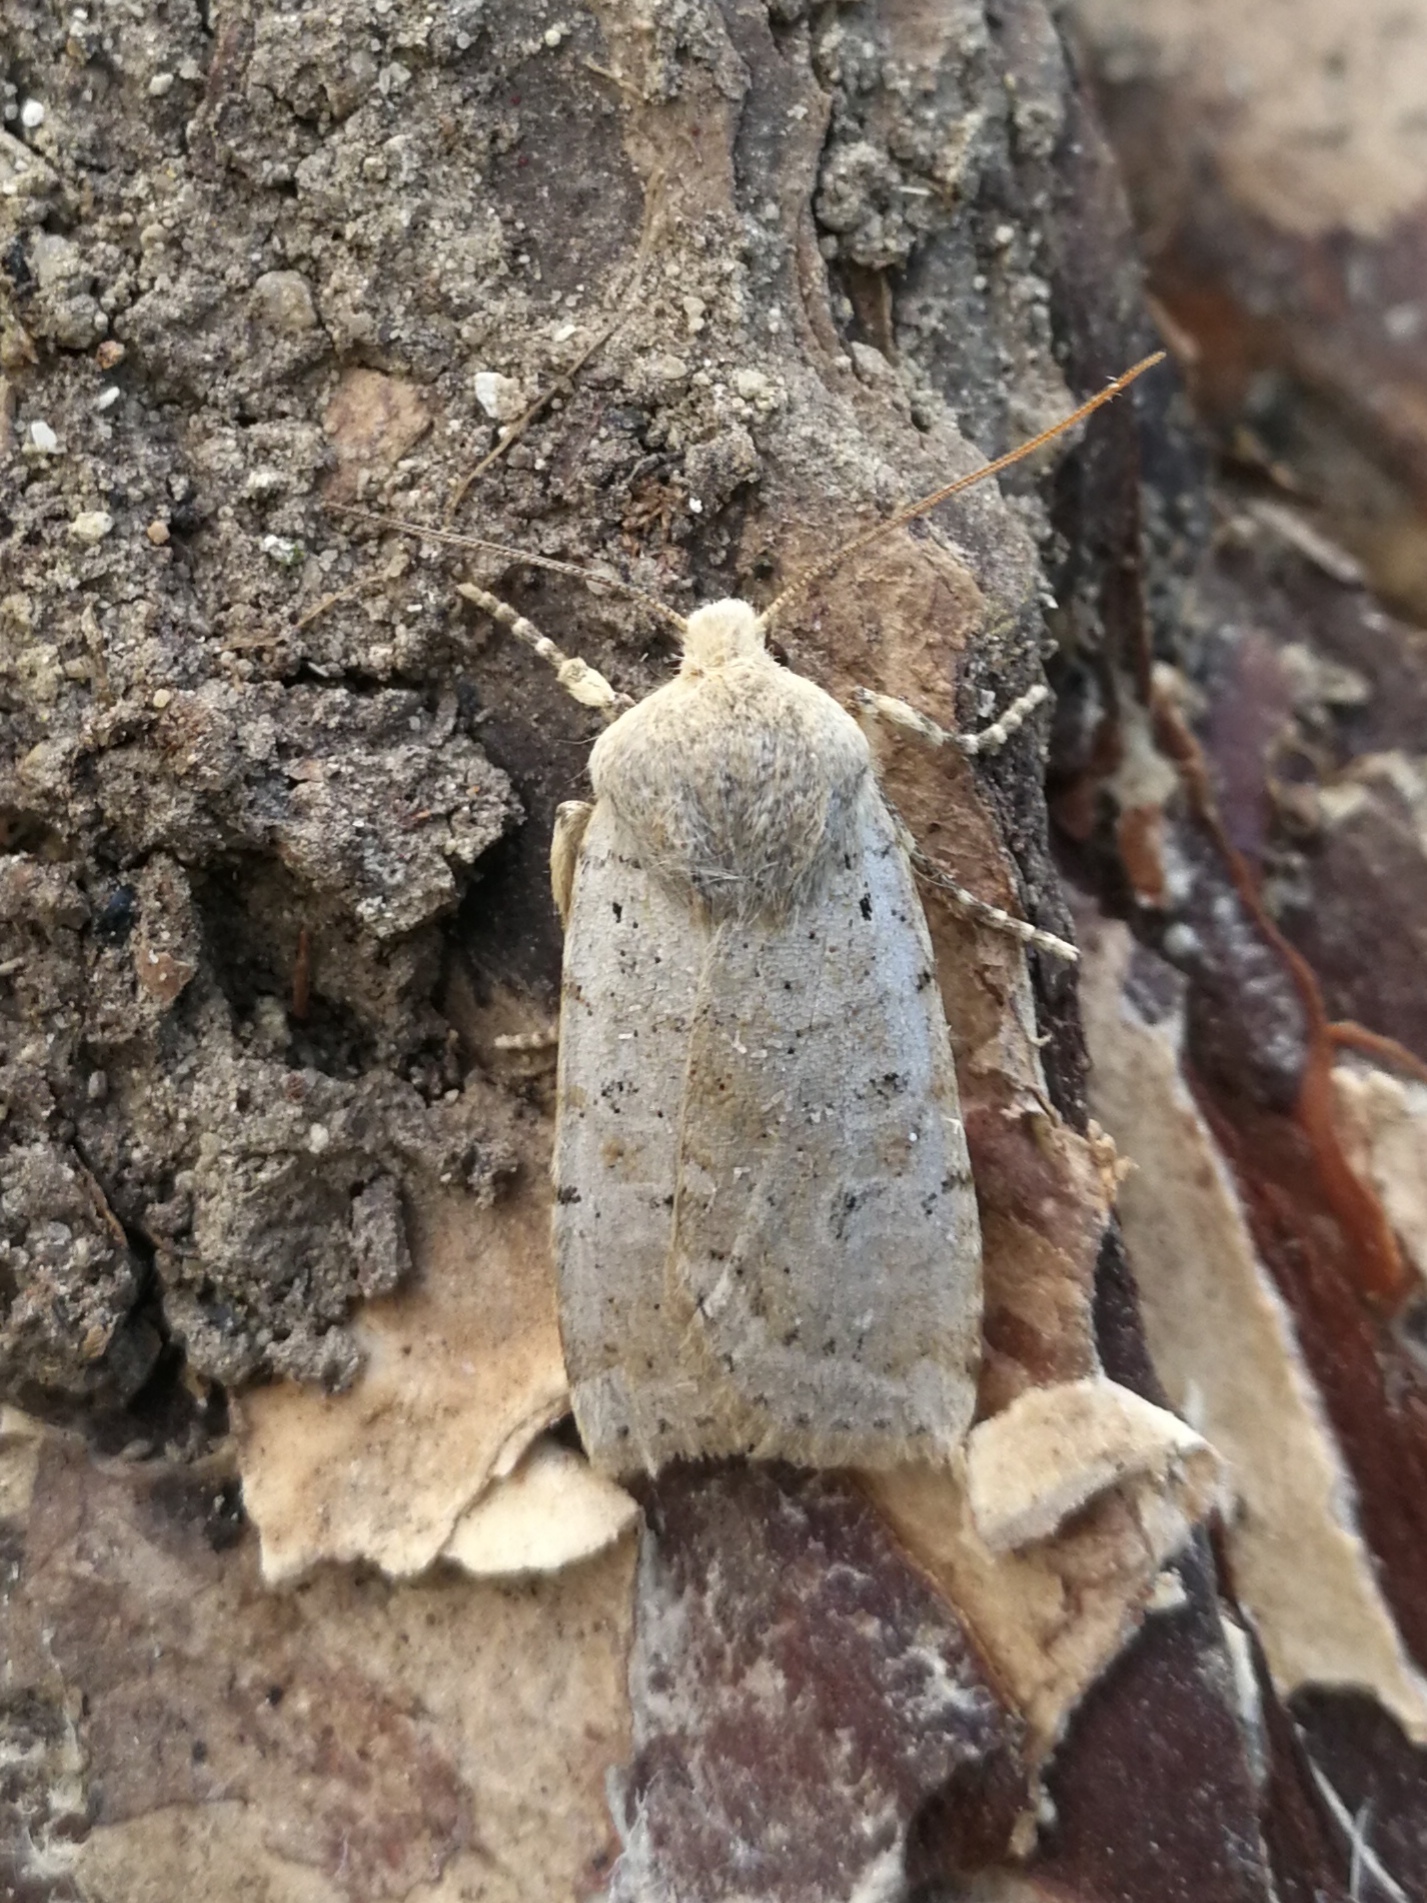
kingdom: Animalia
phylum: Arthropoda
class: Insecta
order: Lepidoptera
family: Noctuidae
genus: Conistra
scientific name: Conistra daubei
